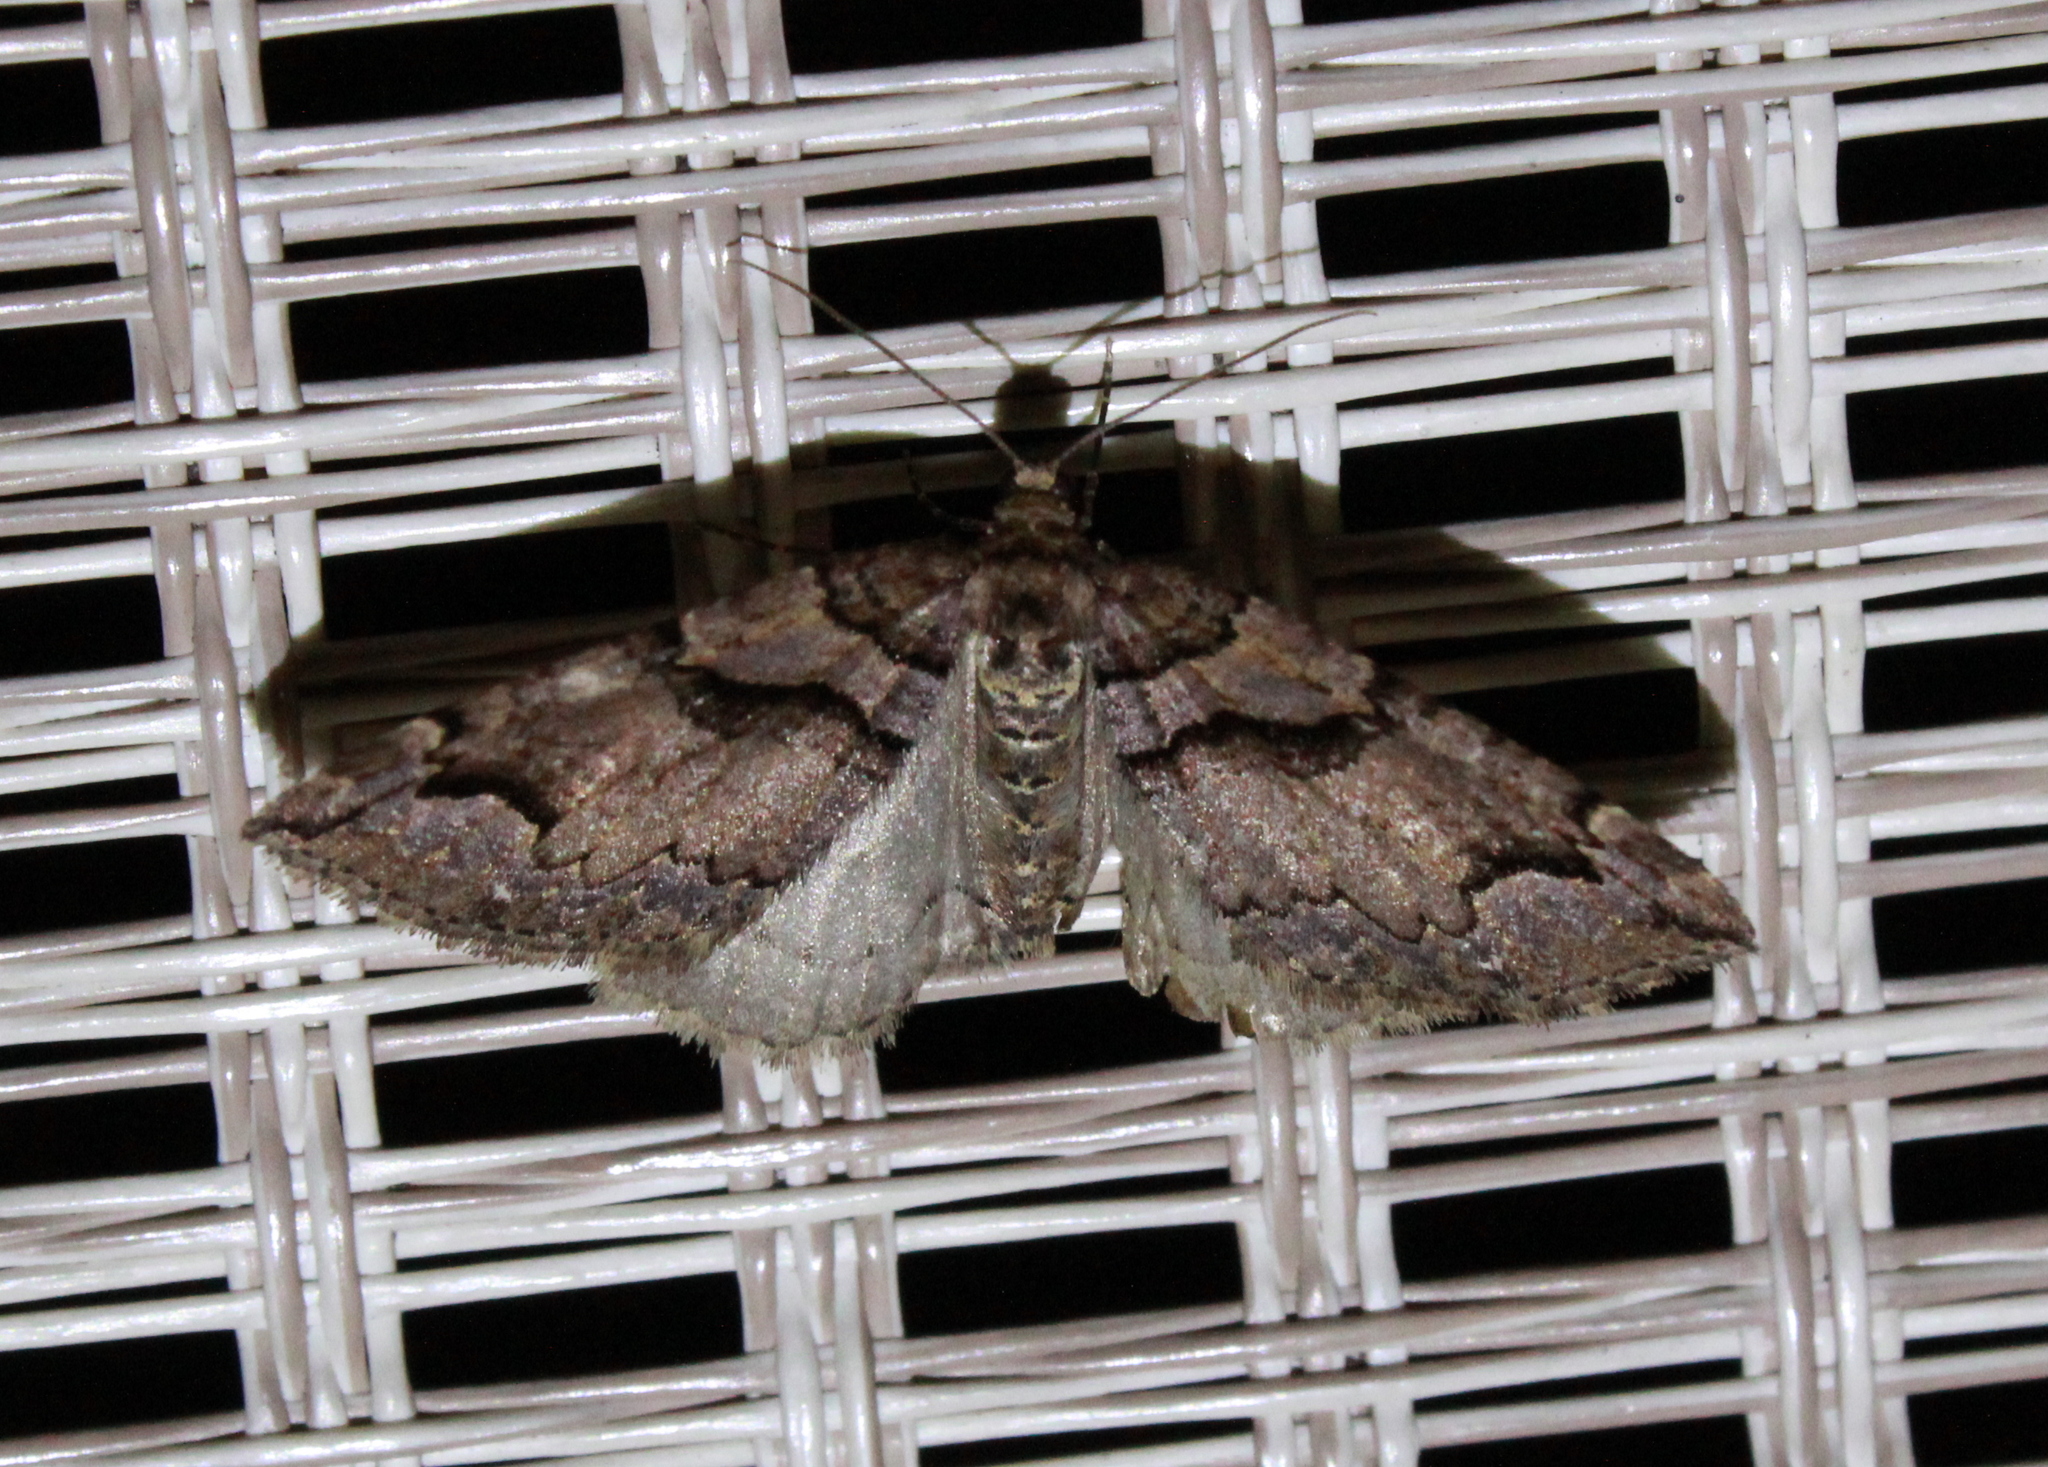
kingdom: Animalia
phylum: Arthropoda
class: Insecta
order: Lepidoptera
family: Geometridae
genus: Anticlea
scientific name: Anticlea vasiliata
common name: Variable carpet
